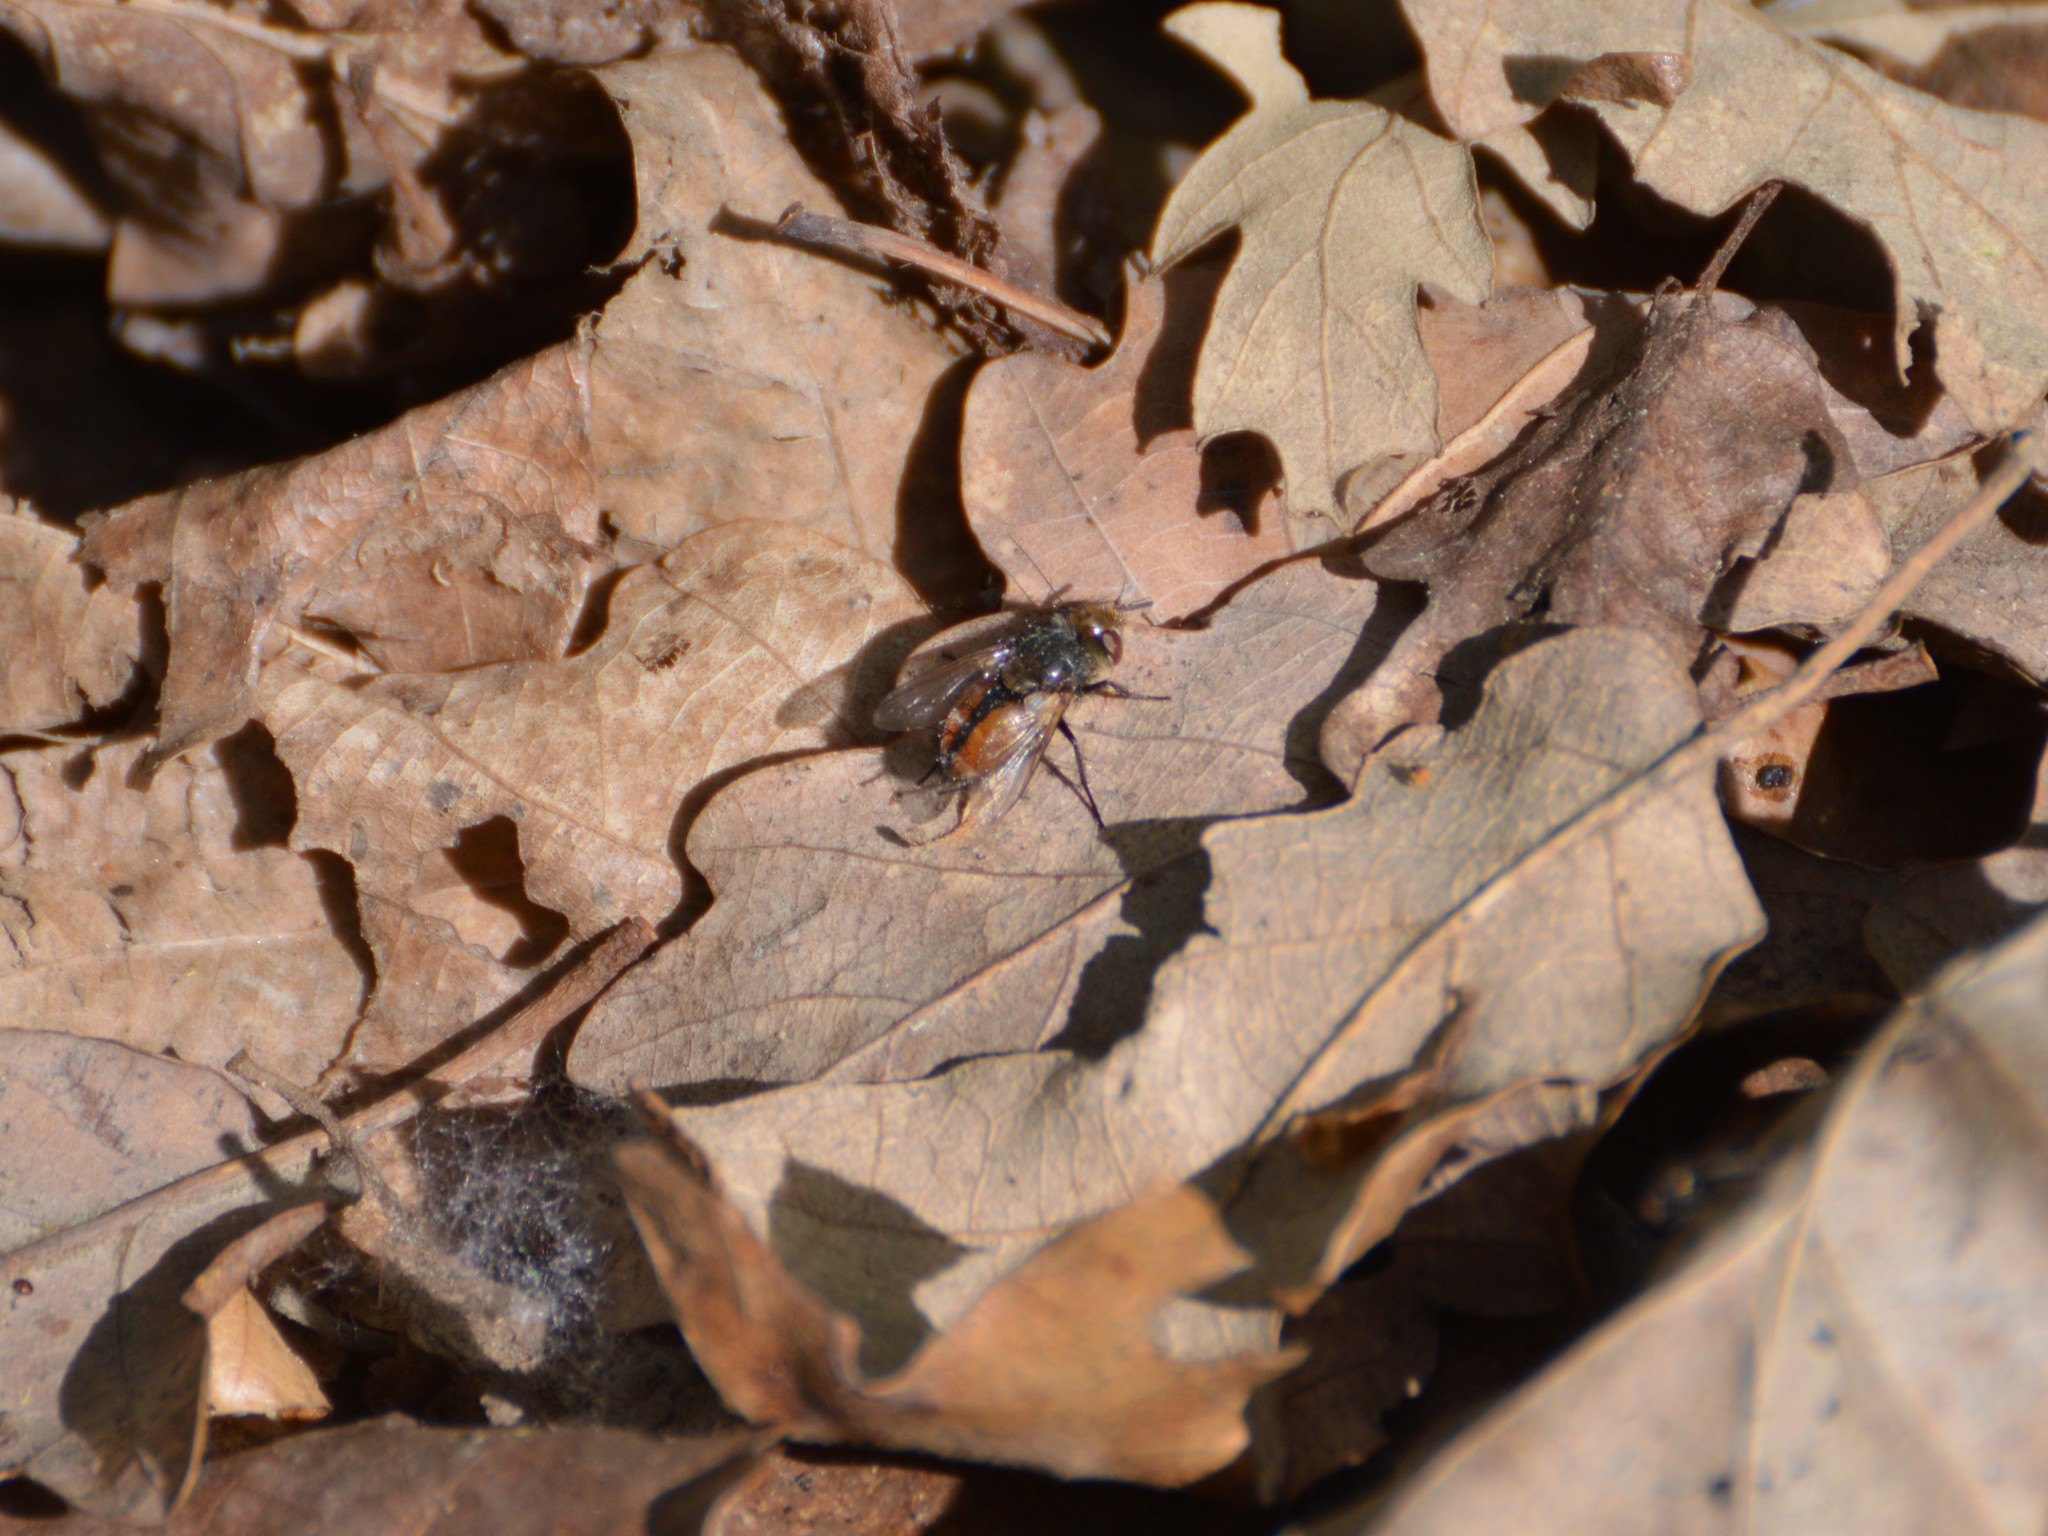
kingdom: Animalia
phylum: Arthropoda
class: Insecta
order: Diptera
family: Tachinidae
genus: Gonia
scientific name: Gonia
